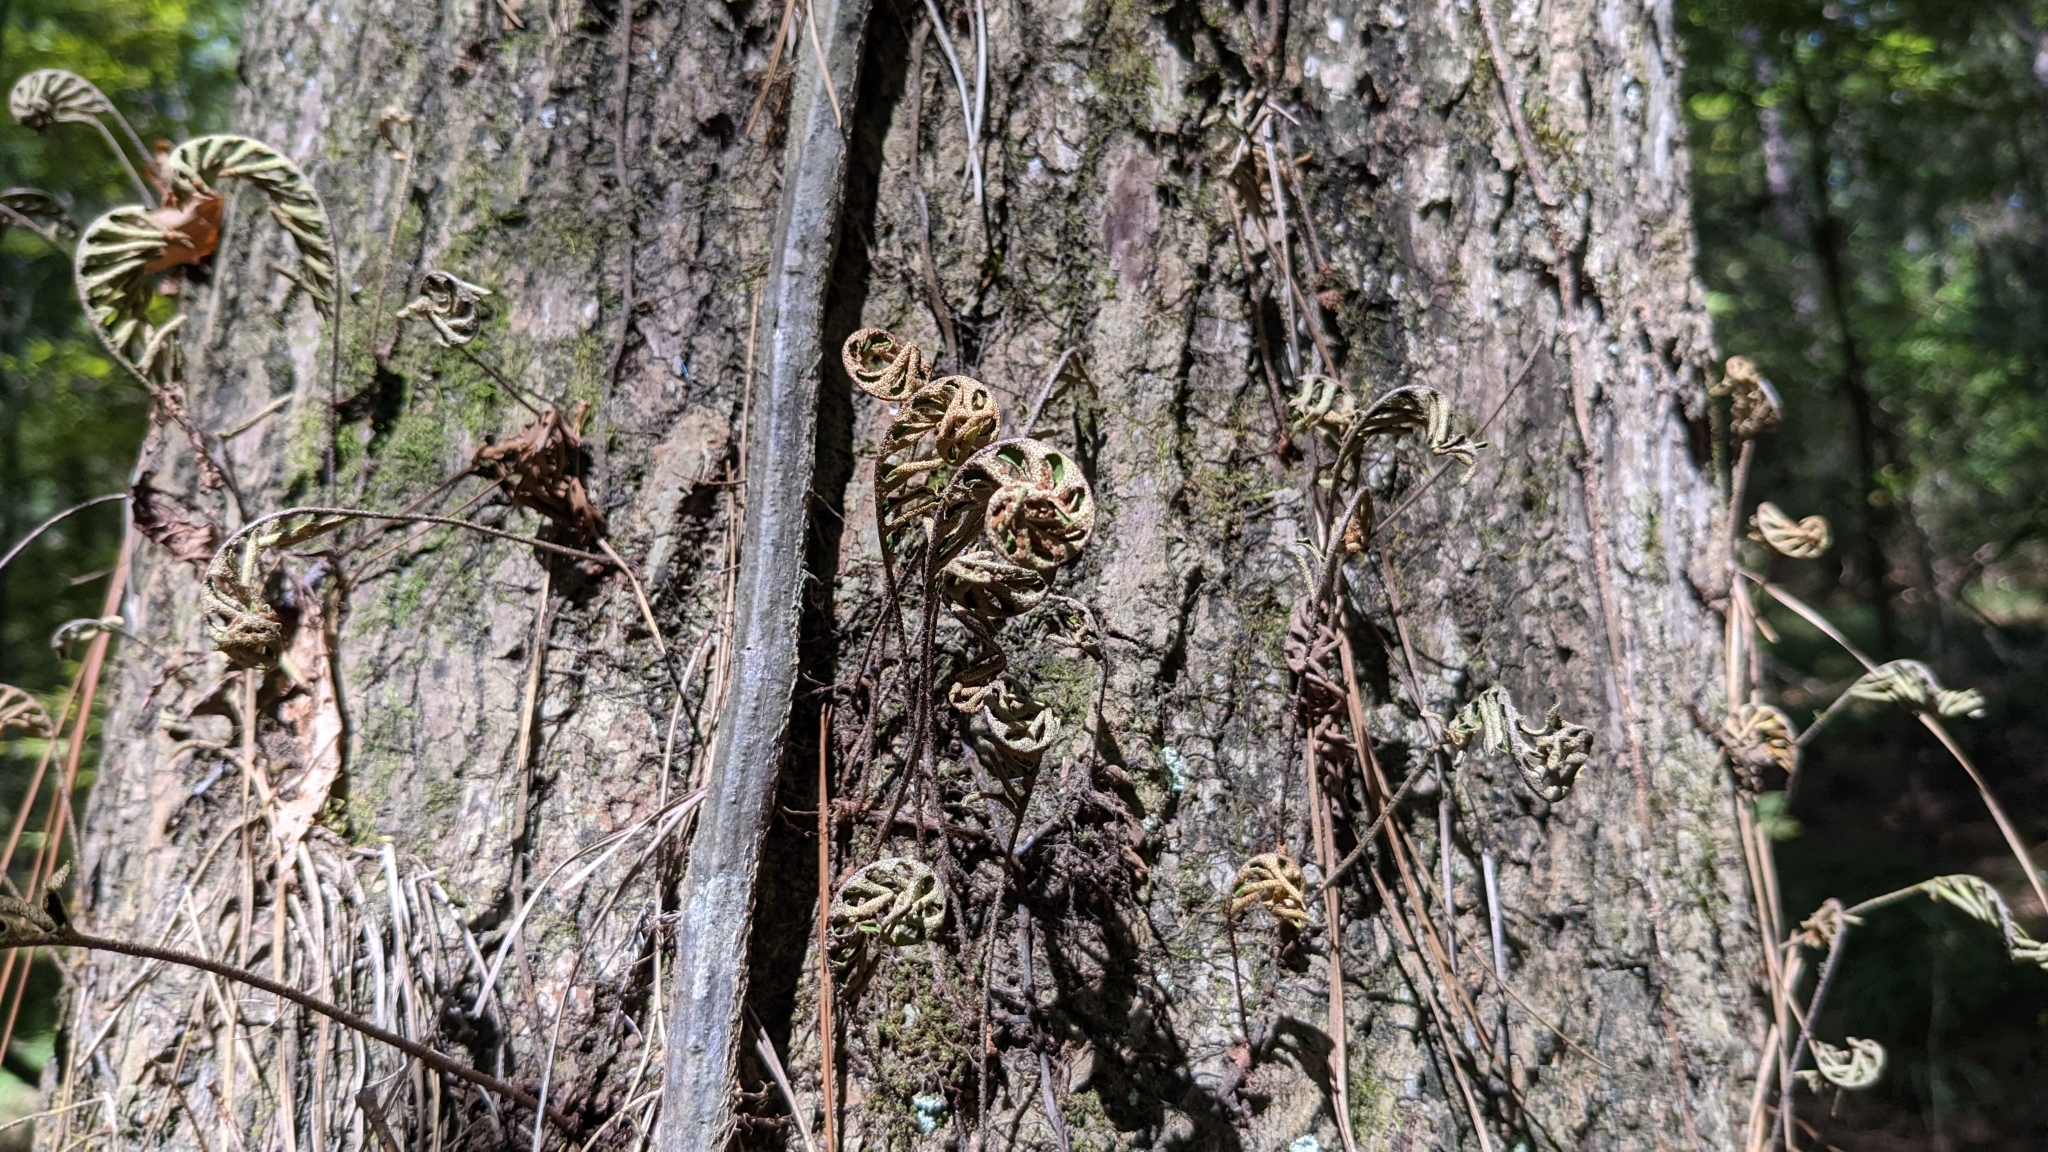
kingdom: Plantae
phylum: Tracheophyta
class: Polypodiopsida
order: Polypodiales
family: Polypodiaceae
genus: Pleopeltis
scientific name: Pleopeltis michauxiana
